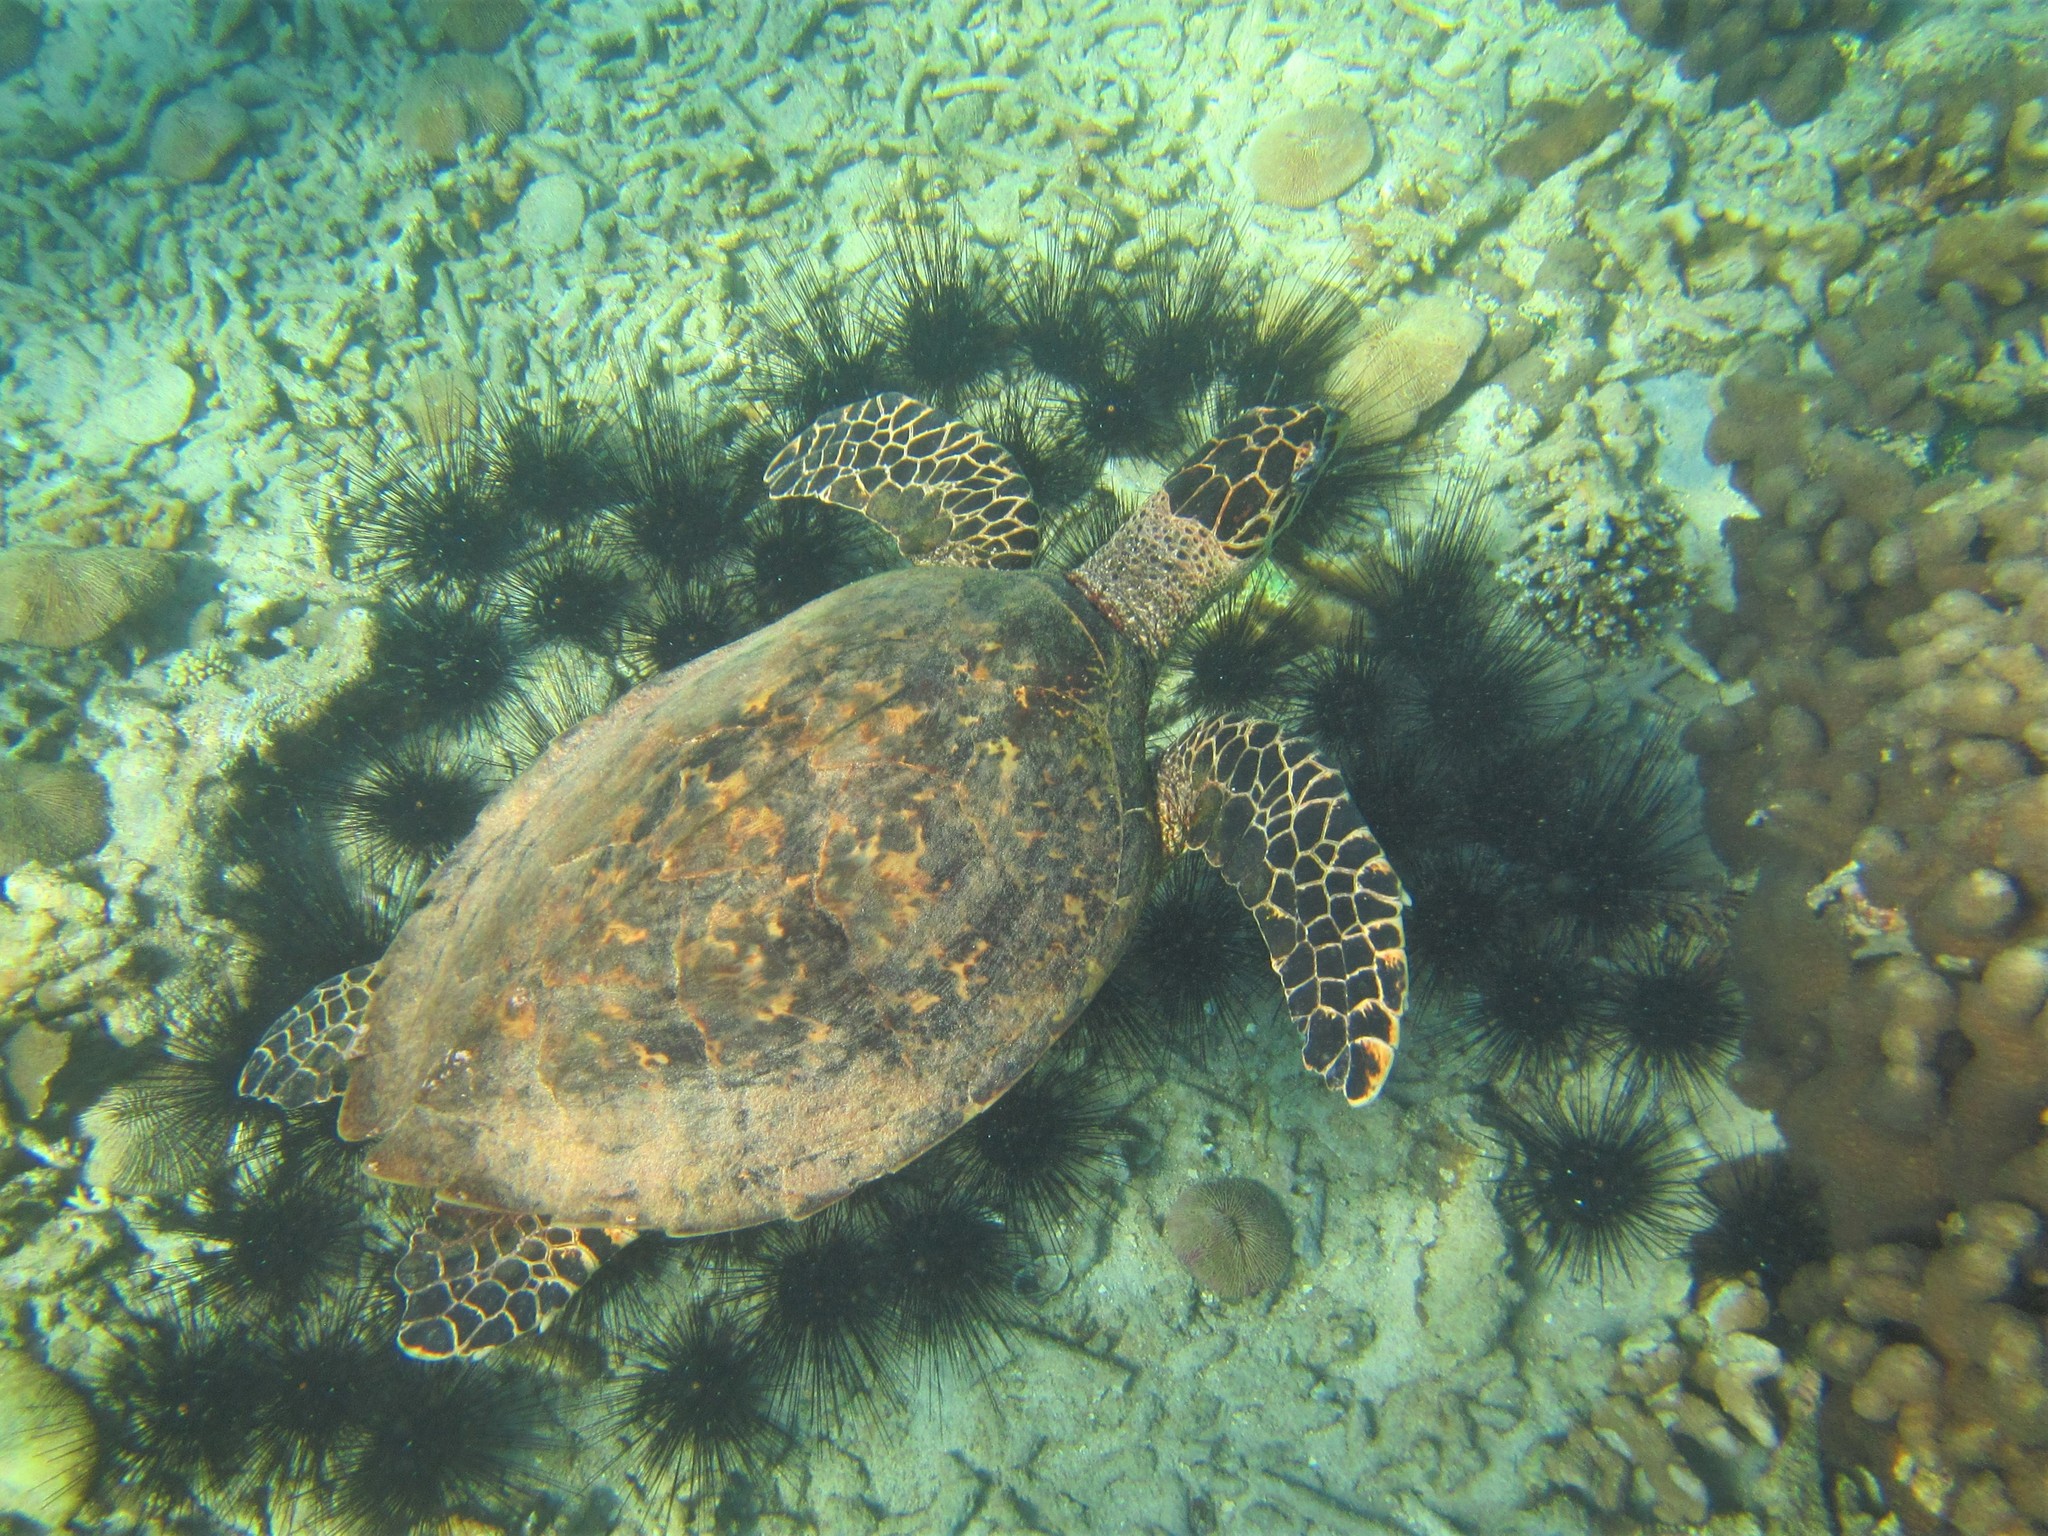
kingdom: Animalia
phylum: Chordata
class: Testudines
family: Cheloniidae
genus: Eretmochelys
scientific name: Eretmochelys imbricata
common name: Hawksbill turtle
